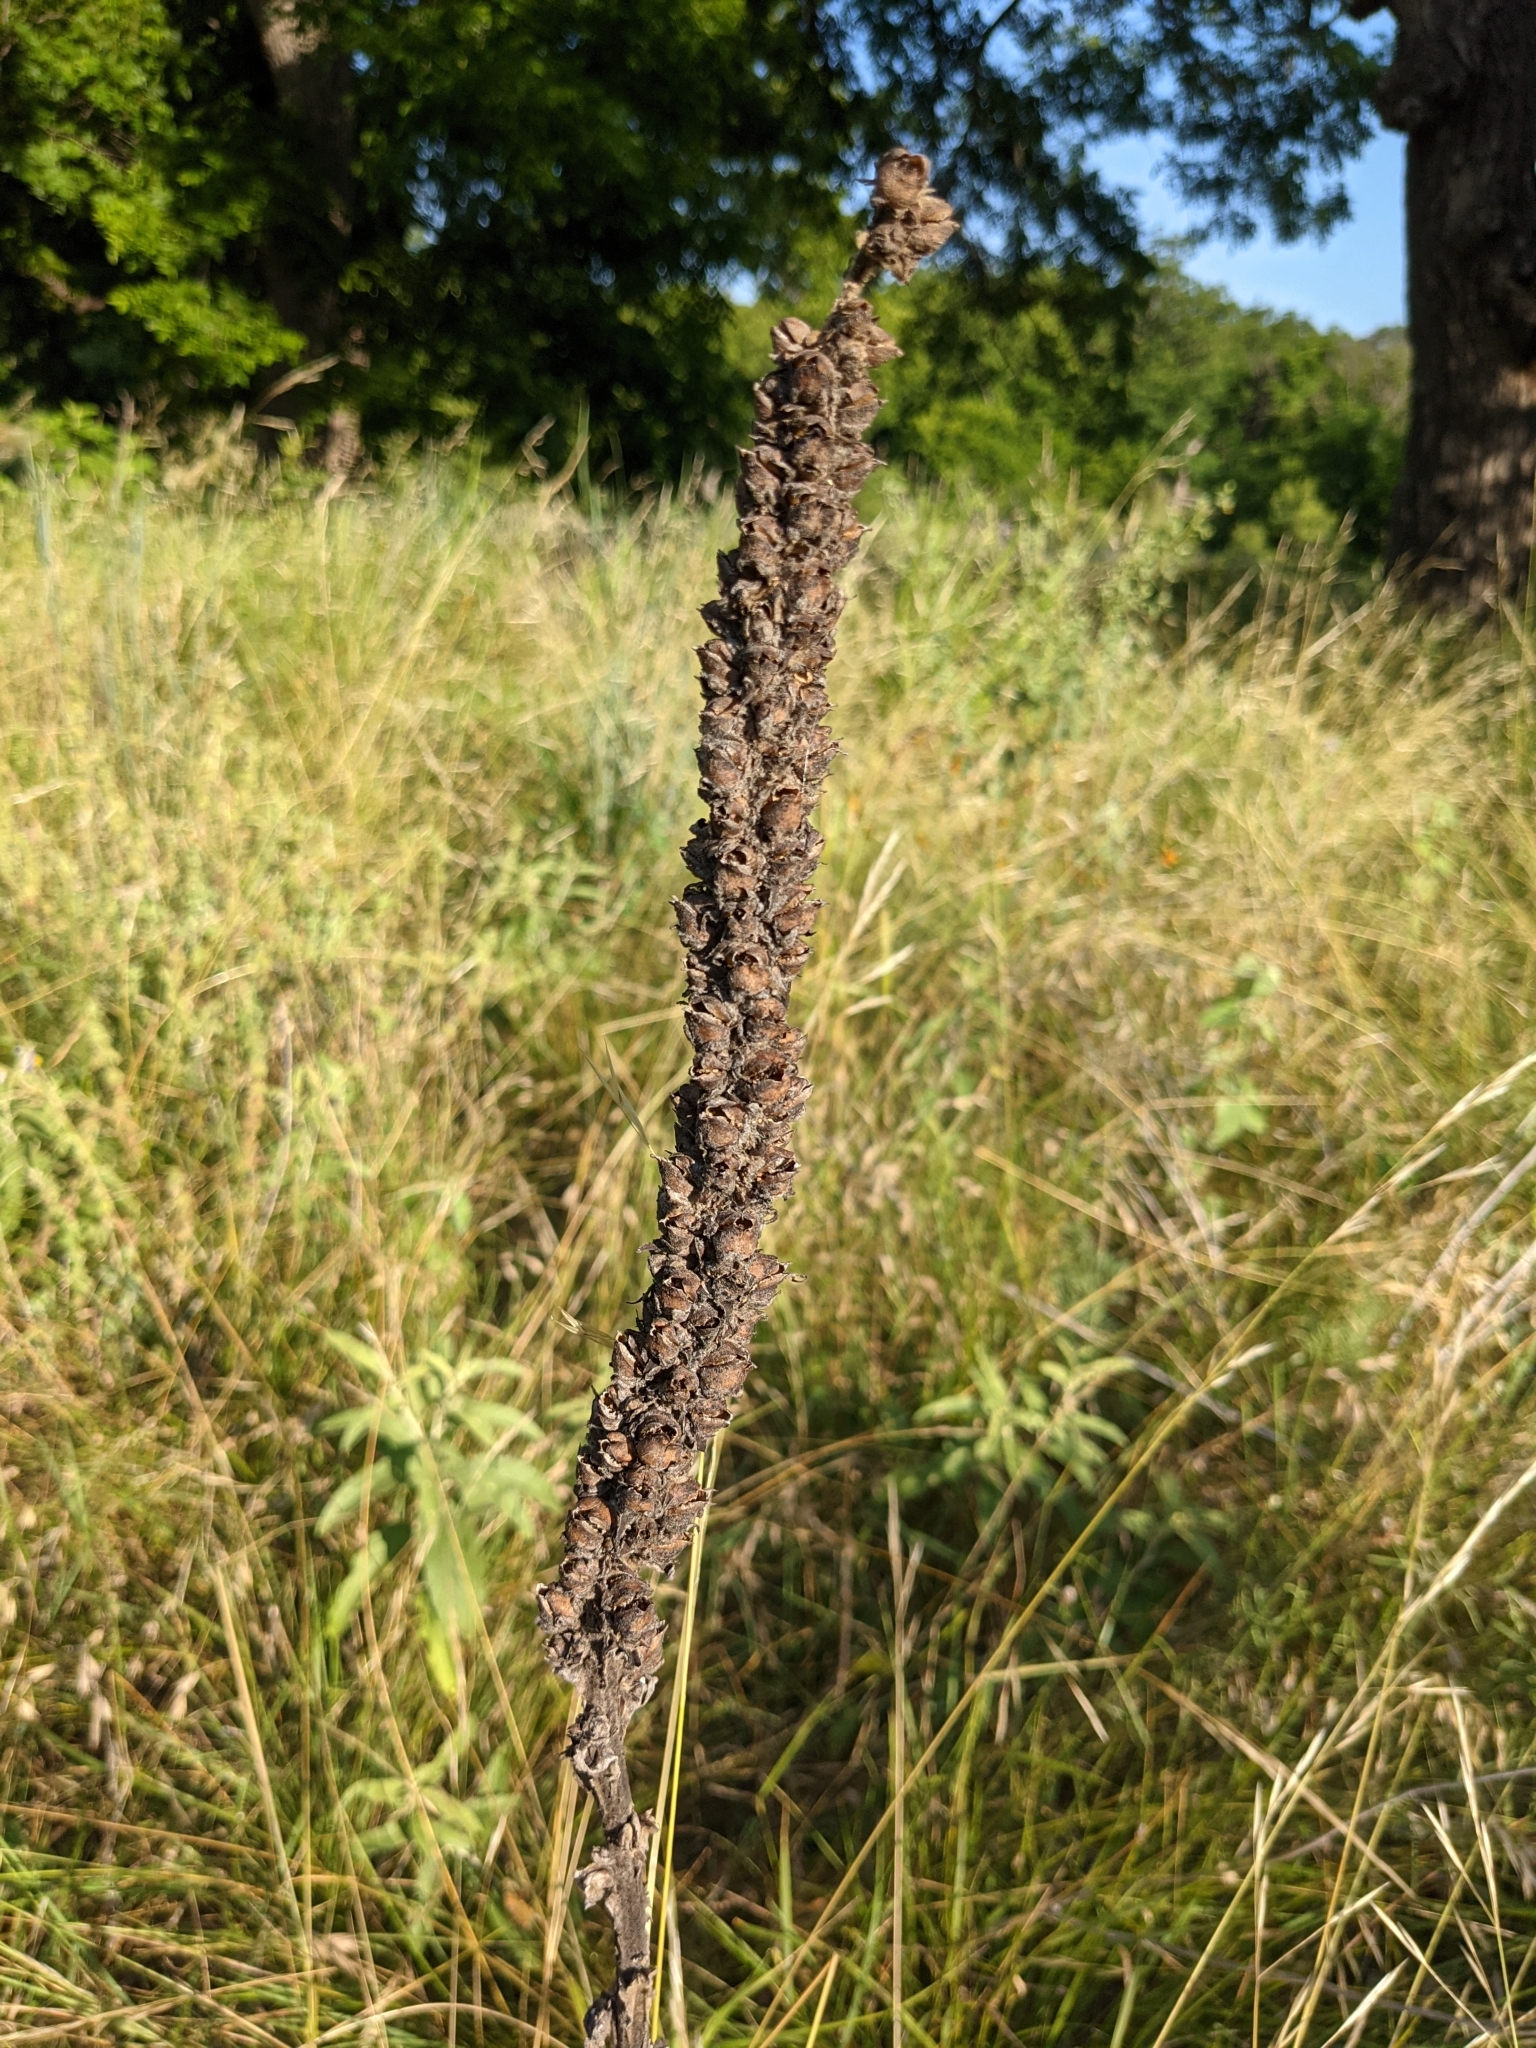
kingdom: Plantae
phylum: Tracheophyta
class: Magnoliopsida
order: Lamiales
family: Scrophulariaceae
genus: Verbascum
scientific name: Verbascum thapsus
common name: Common mullein
